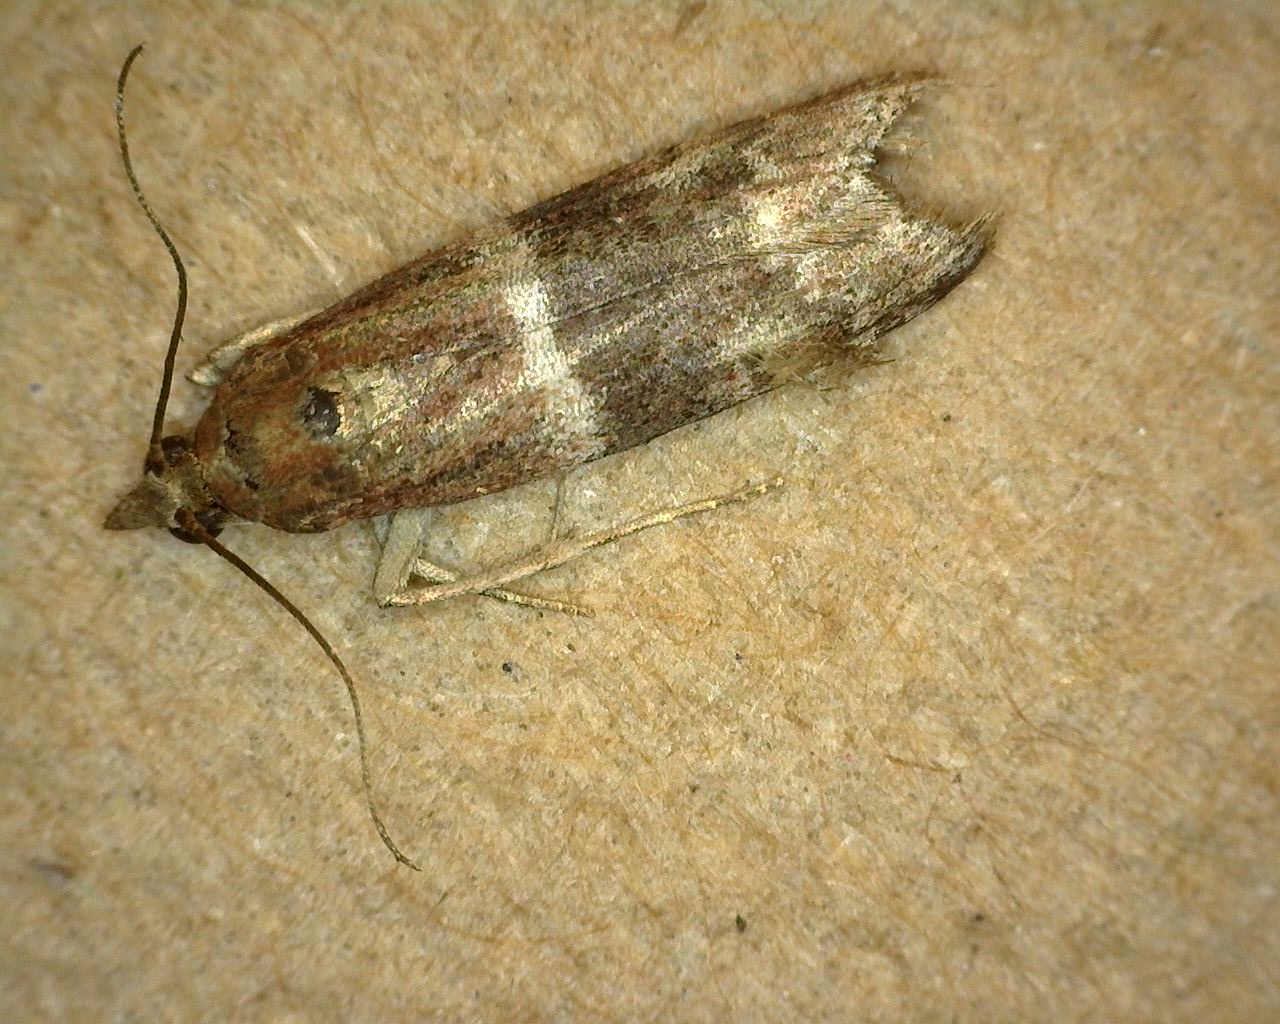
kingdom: Animalia
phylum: Arthropoda
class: Insecta
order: Lepidoptera
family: Pyralidae
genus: Moodna
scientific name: Moodna ostrinella
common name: Darker moodna moth
